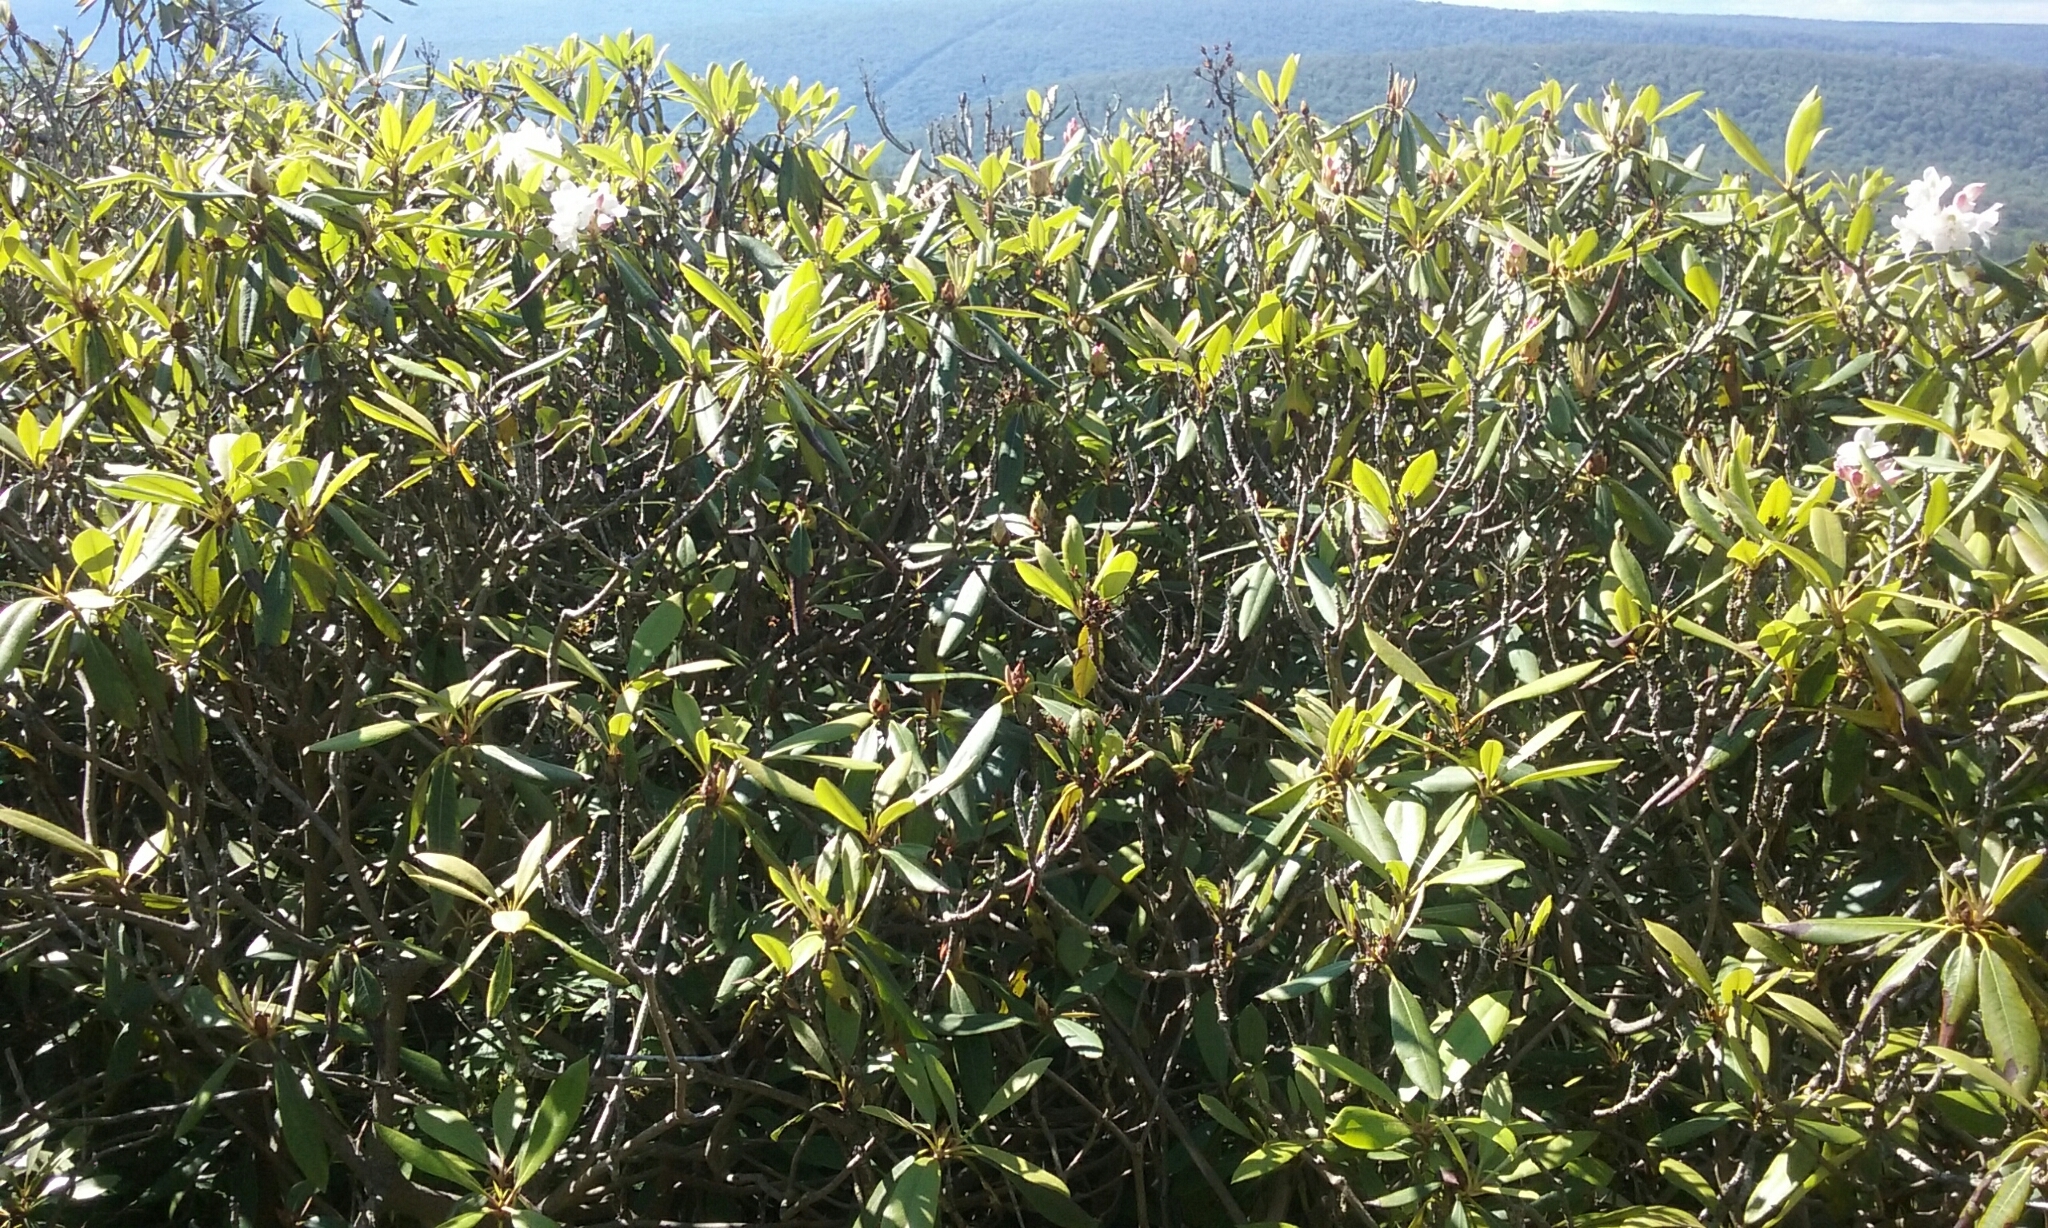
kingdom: Plantae
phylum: Tracheophyta
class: Magnoliopsida
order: Ericales
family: Ericaceae
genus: Rhododendron
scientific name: Rhododendron maximum
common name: Great rhododendron
